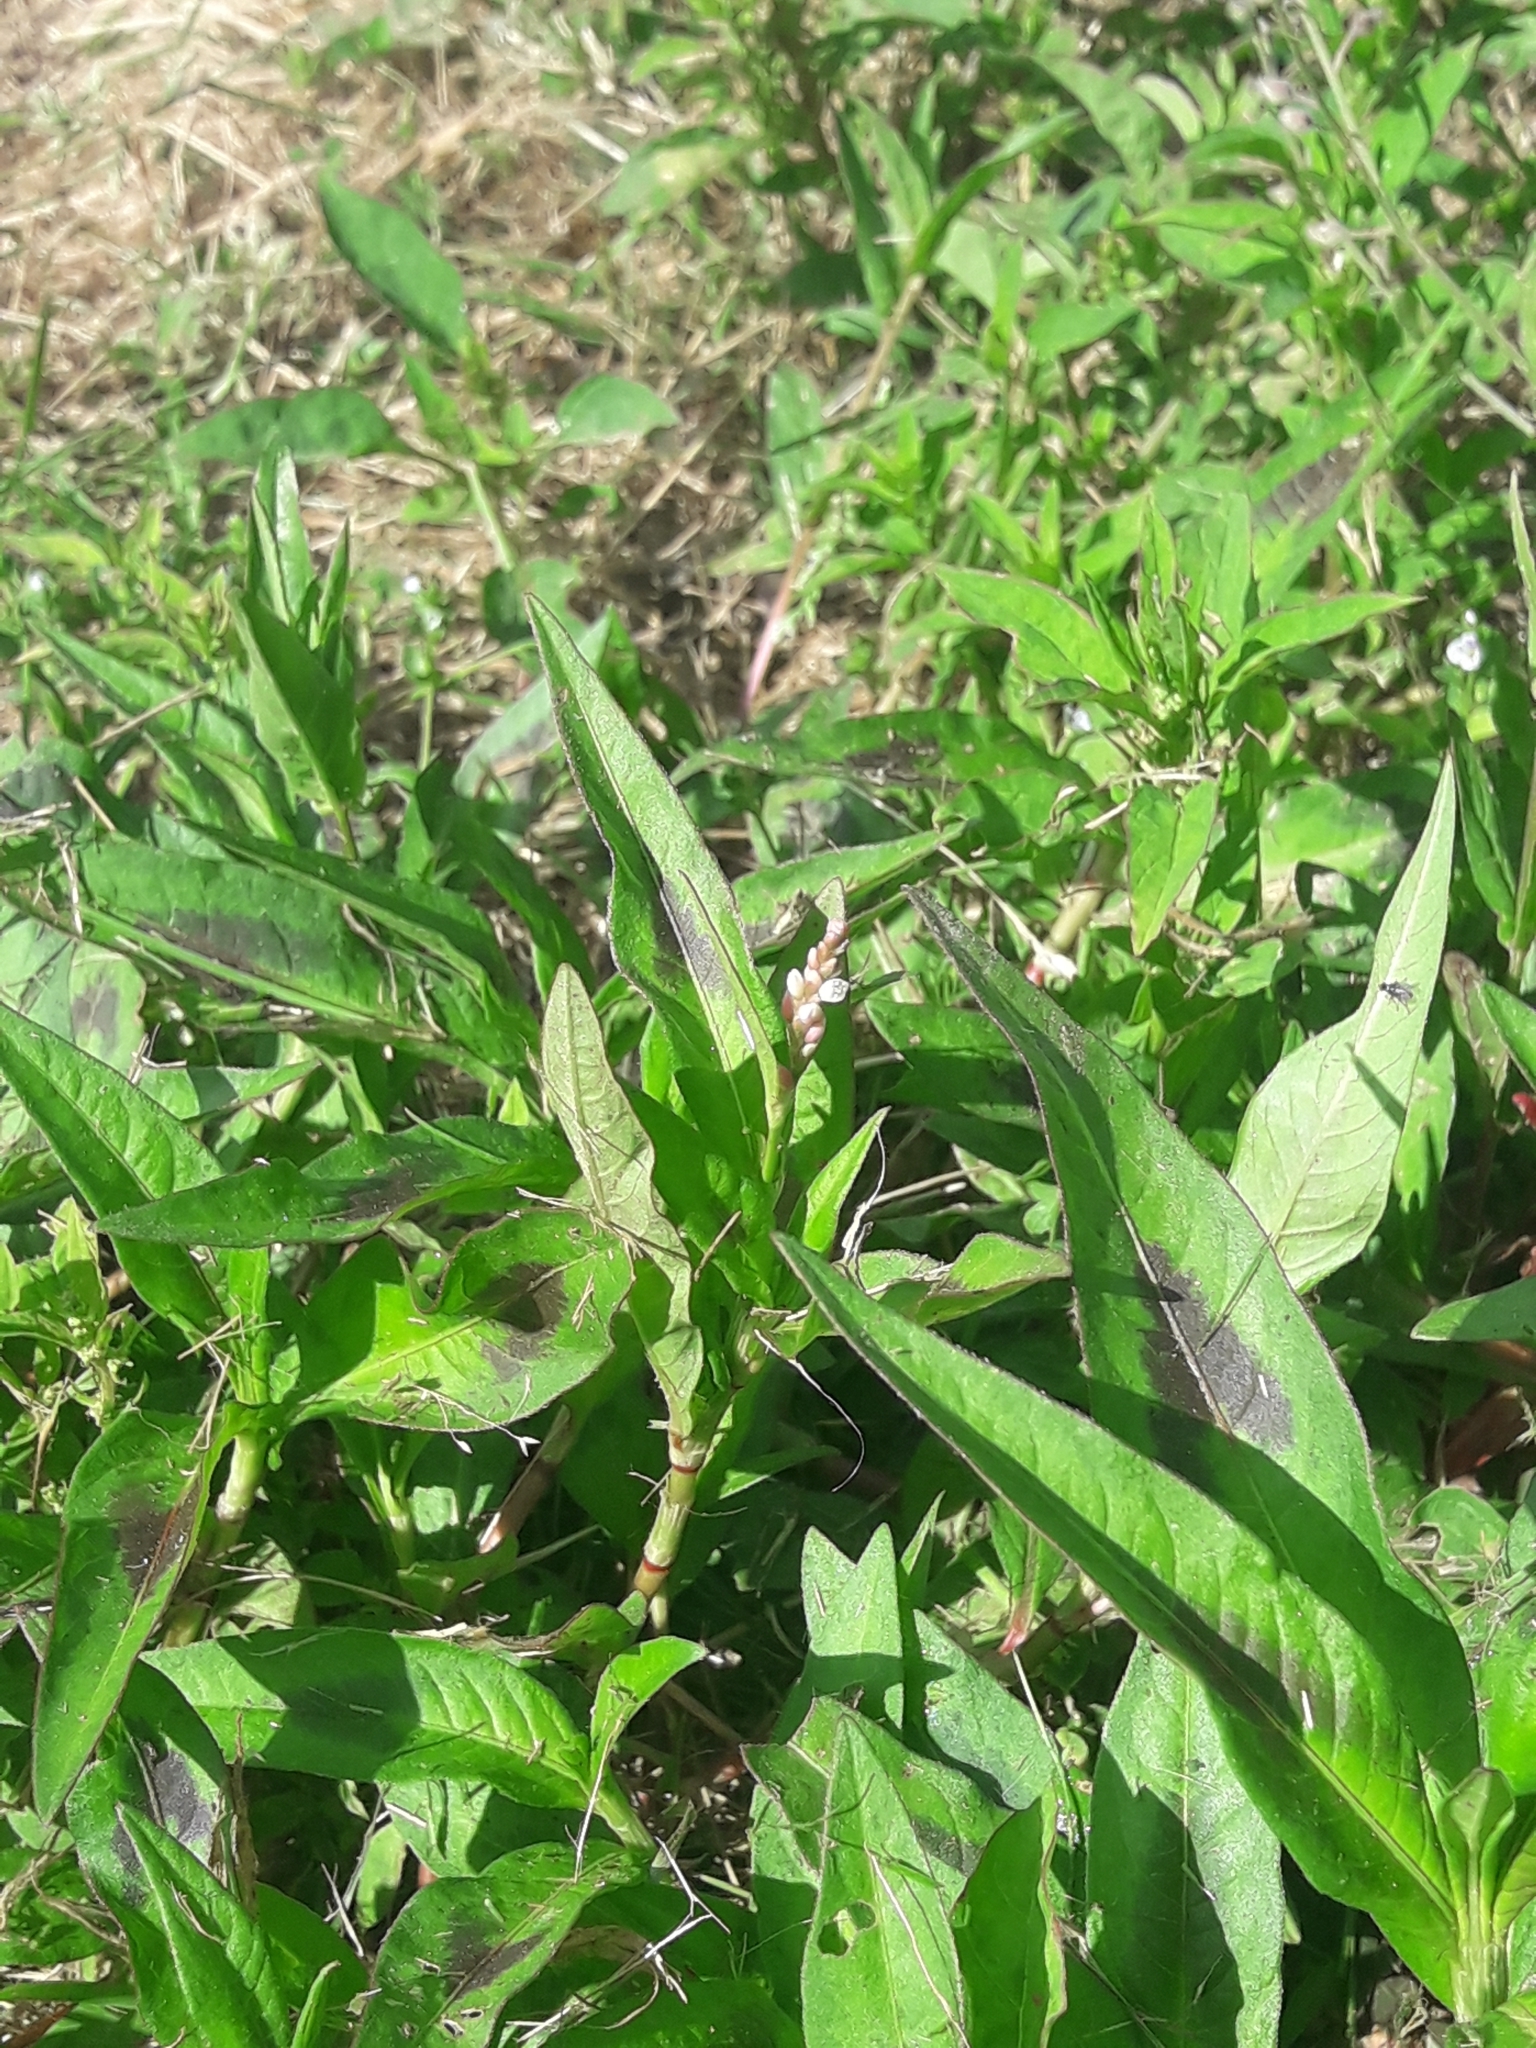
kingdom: Plantae
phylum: Tracheophyta
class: Magnoliopsida
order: Caryophyllales
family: Polygonaceae
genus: Persicaria
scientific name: Persicaria maculosa
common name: Redshank
